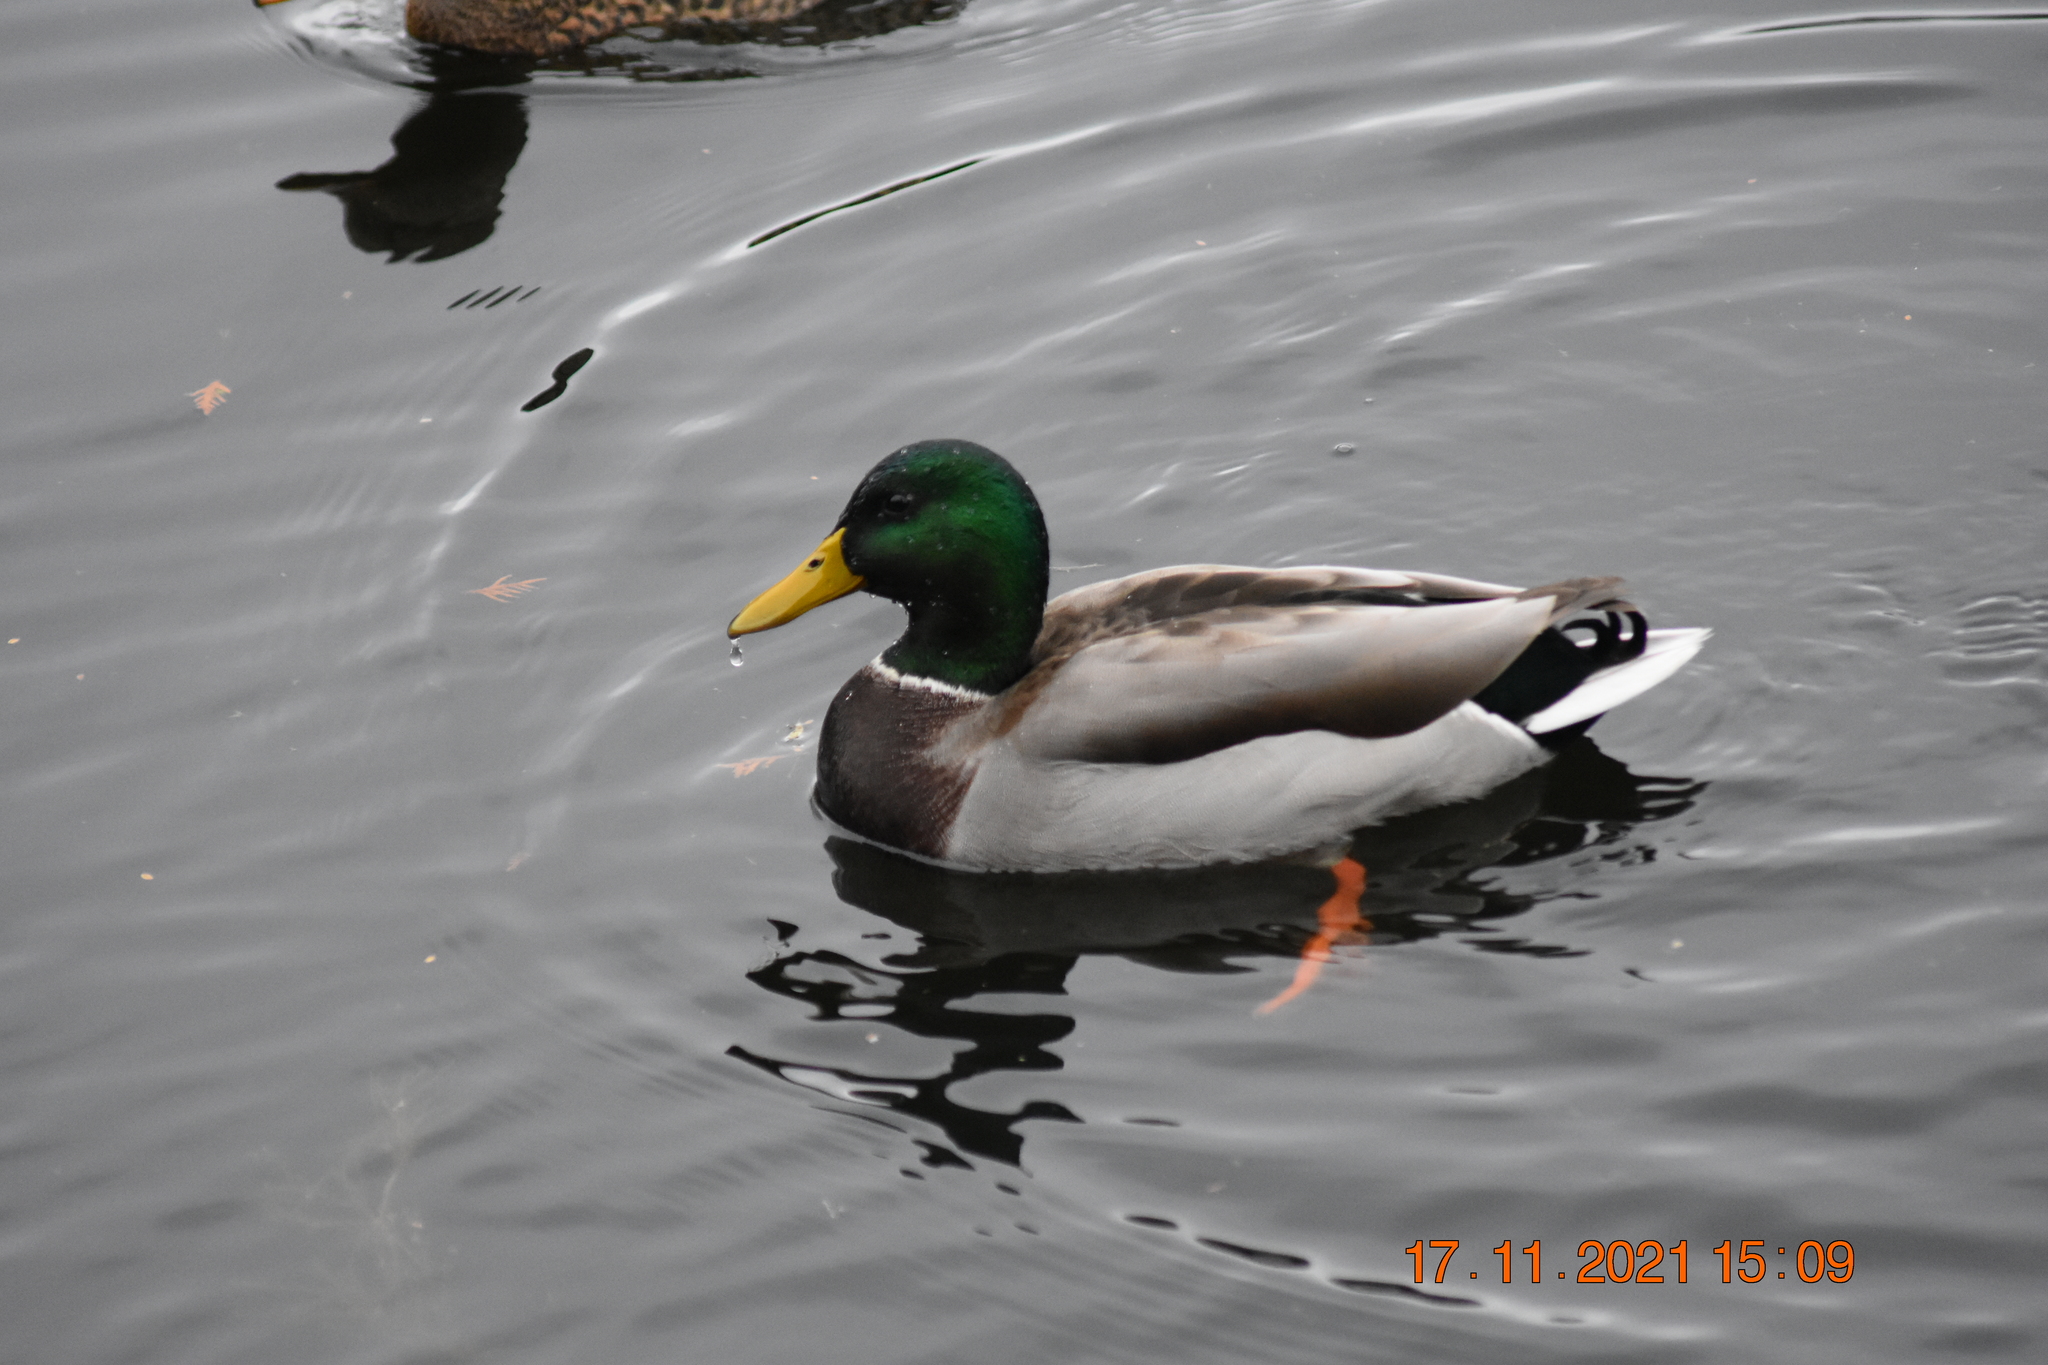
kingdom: Animalia
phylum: Chordata
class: Aves
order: Anseriformes
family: Anatidae
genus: Anas
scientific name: Anas platyrhynchos
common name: Mallard
